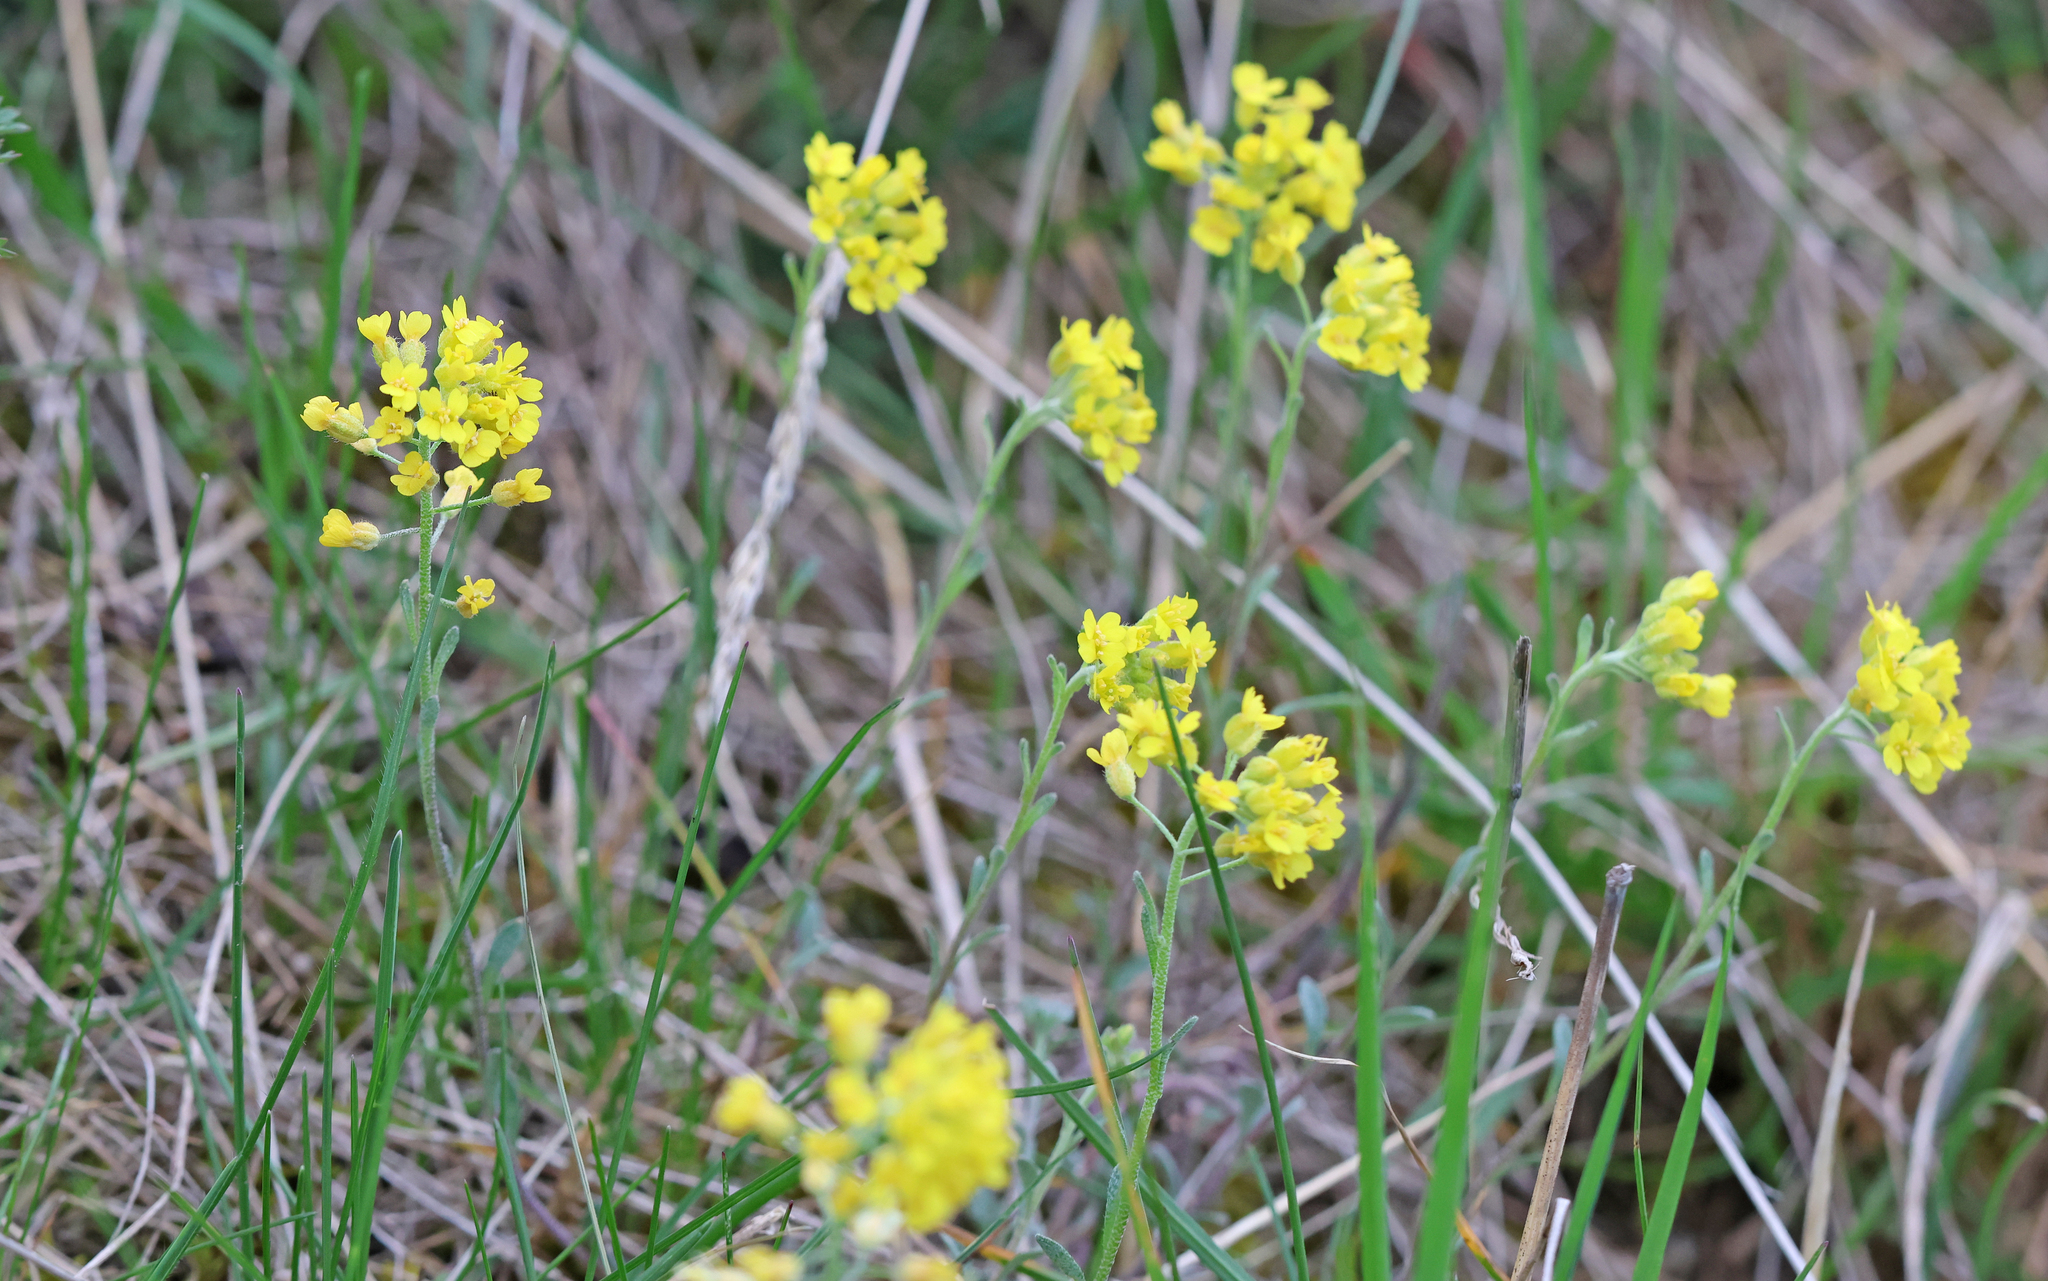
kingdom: Plantae
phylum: Tracheophyta
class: Magnoliopsida
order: Brassicales
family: Brassicaceae
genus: Alyssum
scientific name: Alyssum gmelinii
